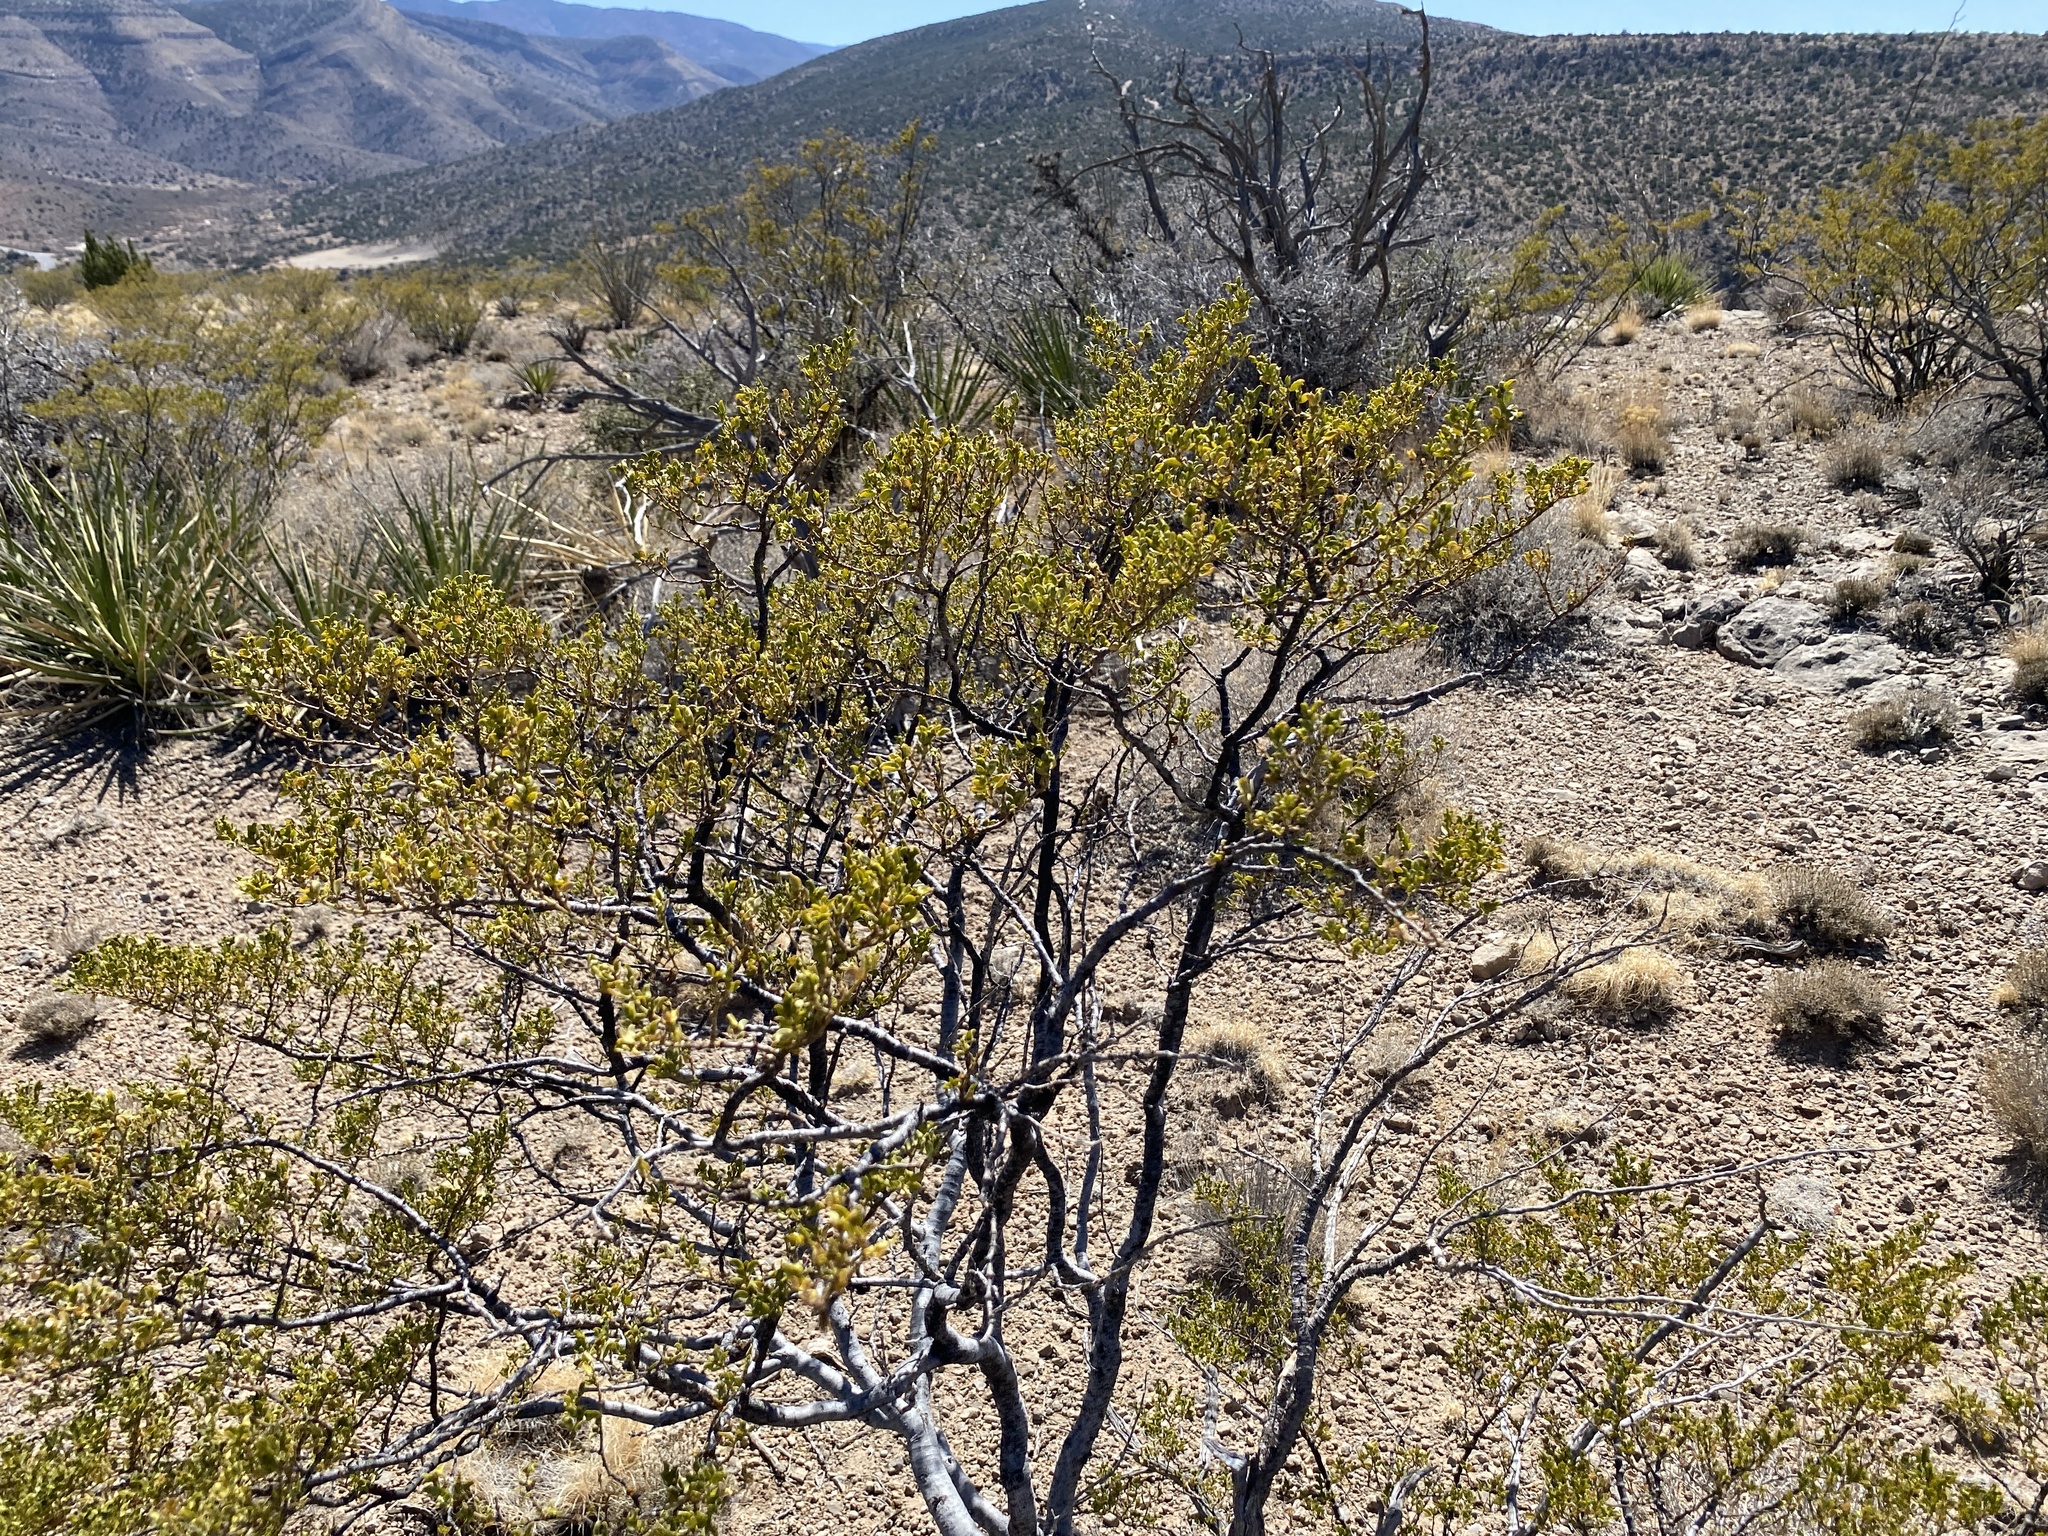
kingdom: Plantae
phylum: Tracheophyta
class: Magnoliopsida
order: Zygophyllales
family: Zygophyllaceae
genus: Larrea
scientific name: Larrea tridentata
